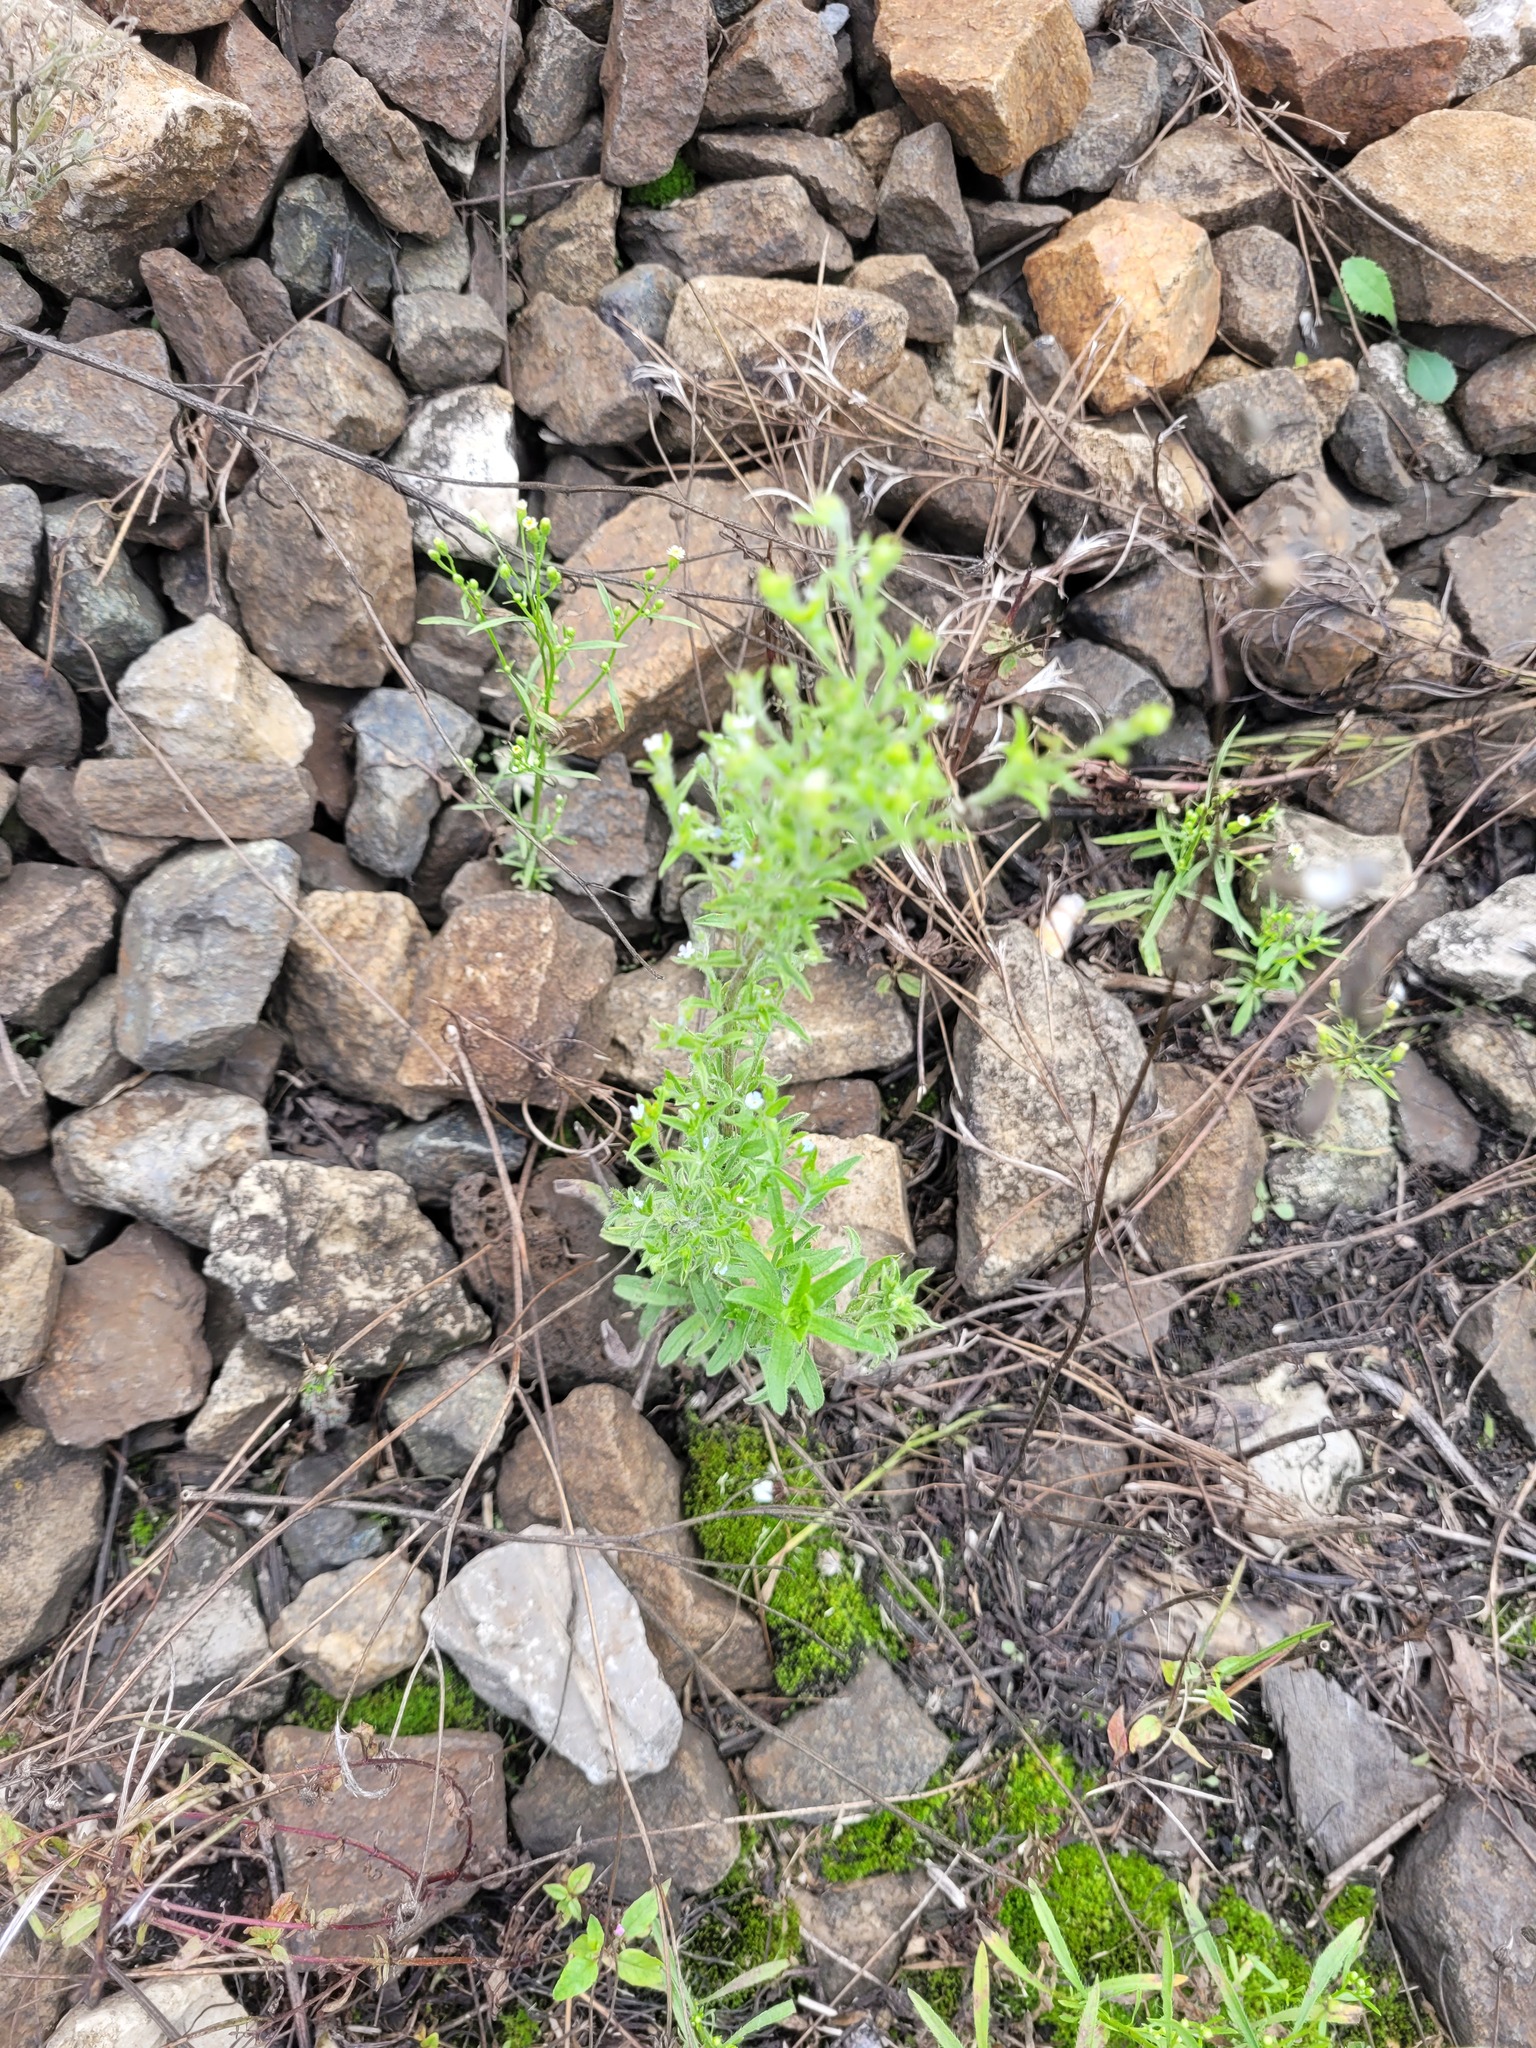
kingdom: Plantae
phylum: Tracheophyta
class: Magnoliopsida
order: Boraginales
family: Boraginaceae
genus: Lappula
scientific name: Lappula squarrosa
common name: European stickseed
